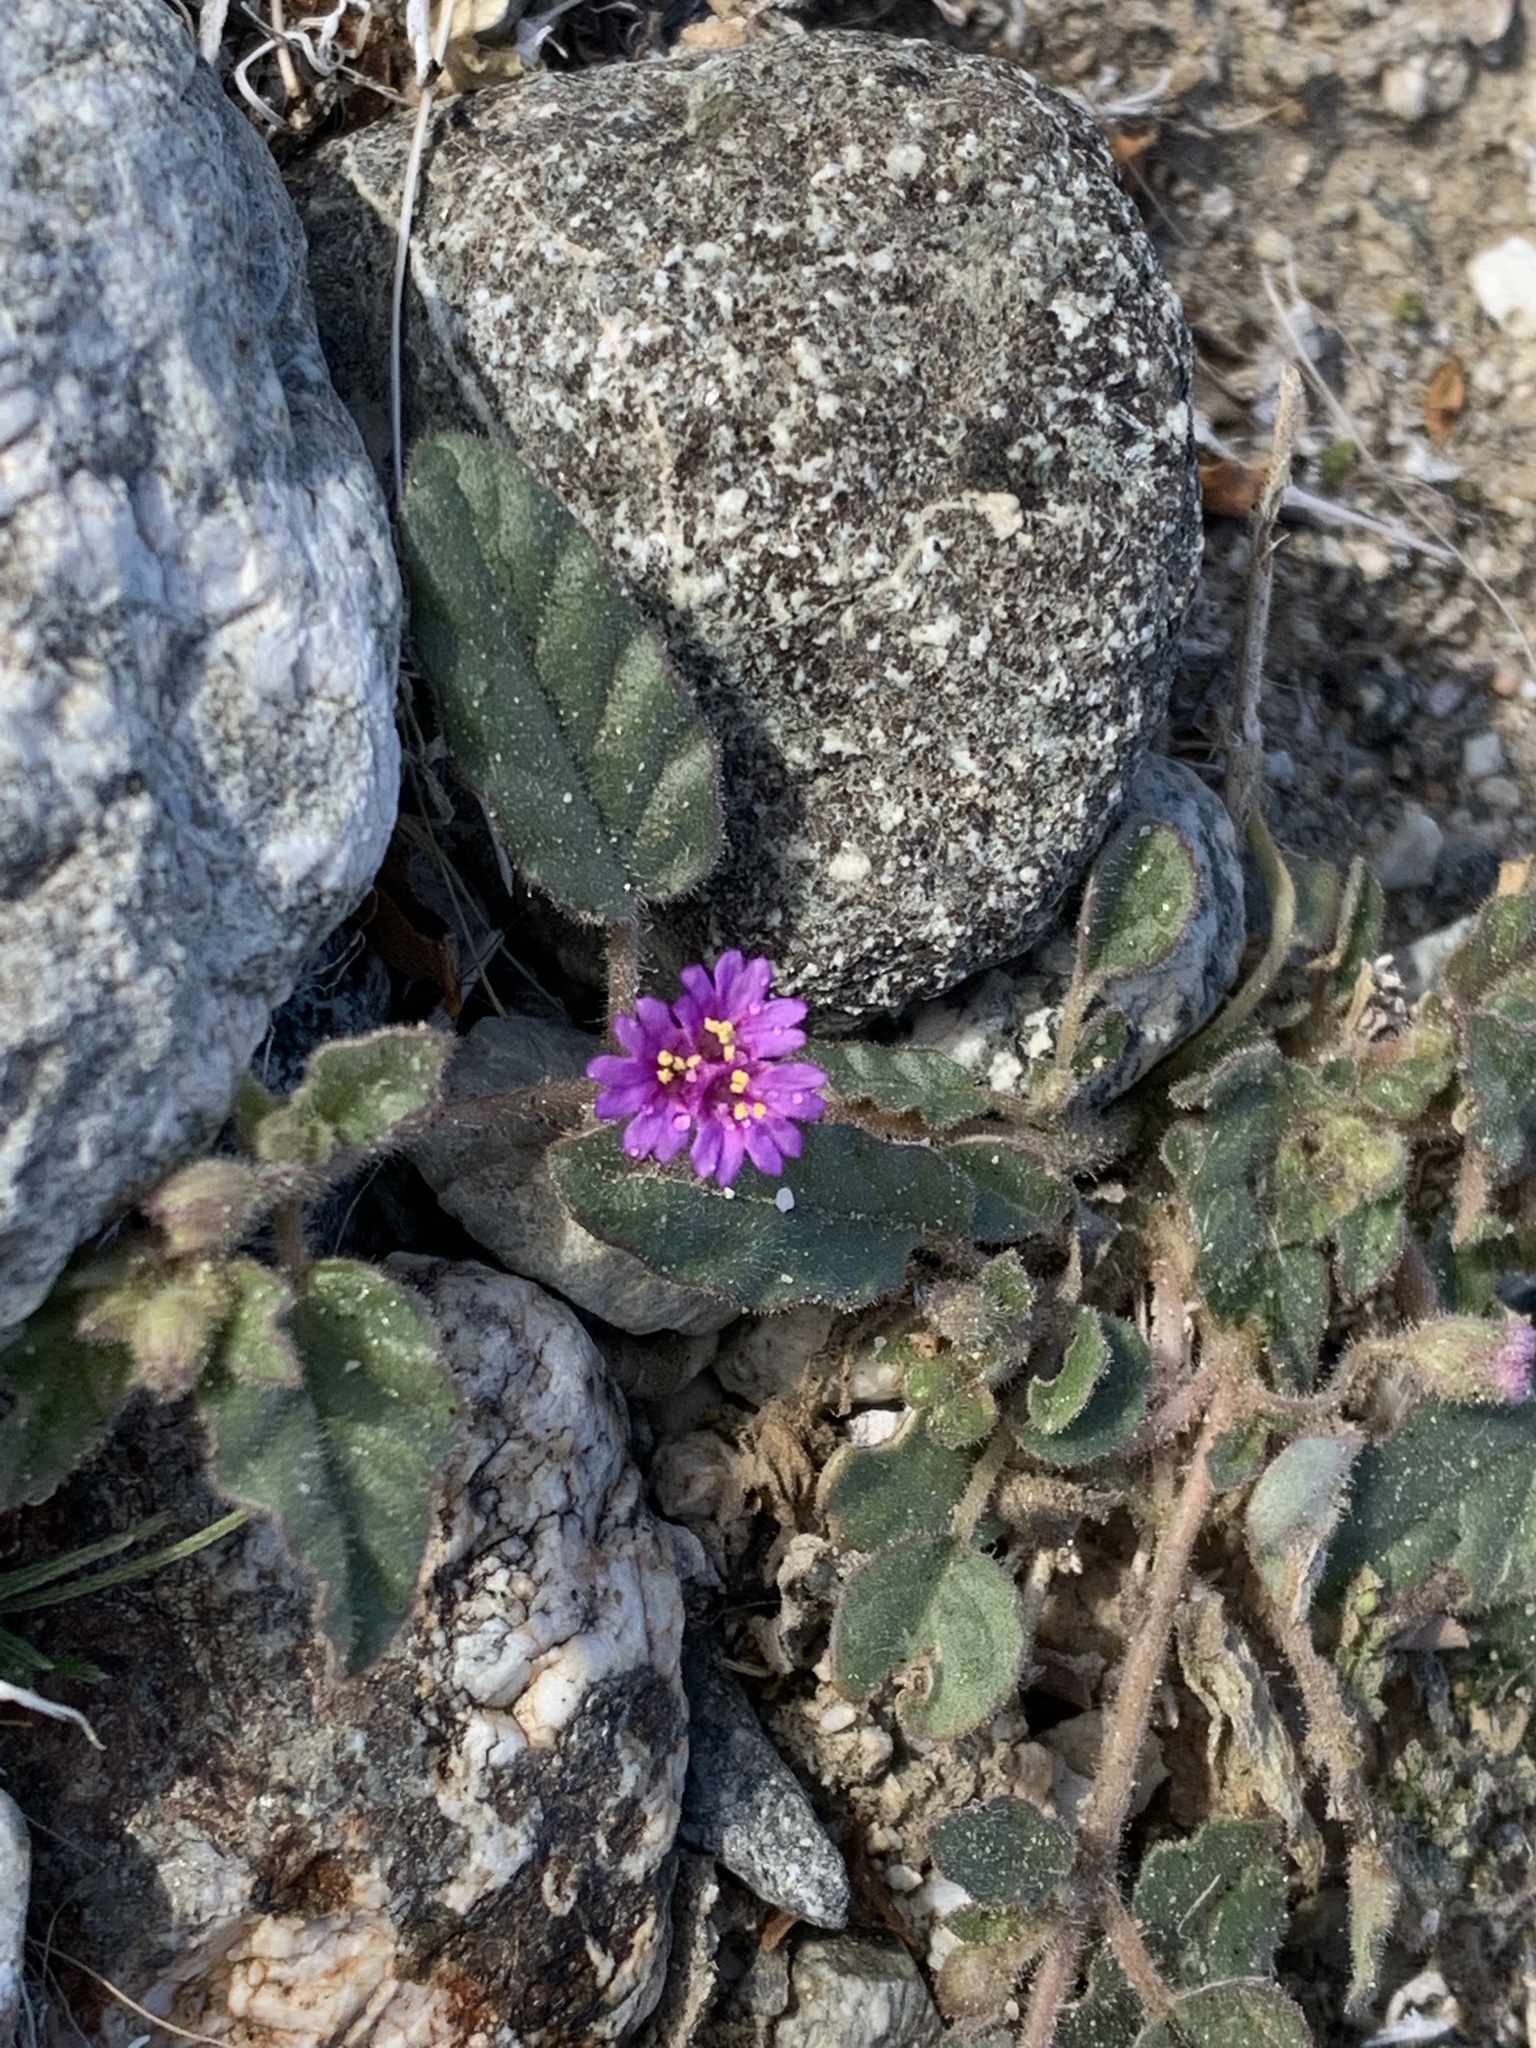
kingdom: Plantae
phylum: Tracheophyta
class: Magnoliopsida
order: Caryophyllales
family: Nyctaginaceae
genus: Allionia
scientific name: Allionia incarnata
